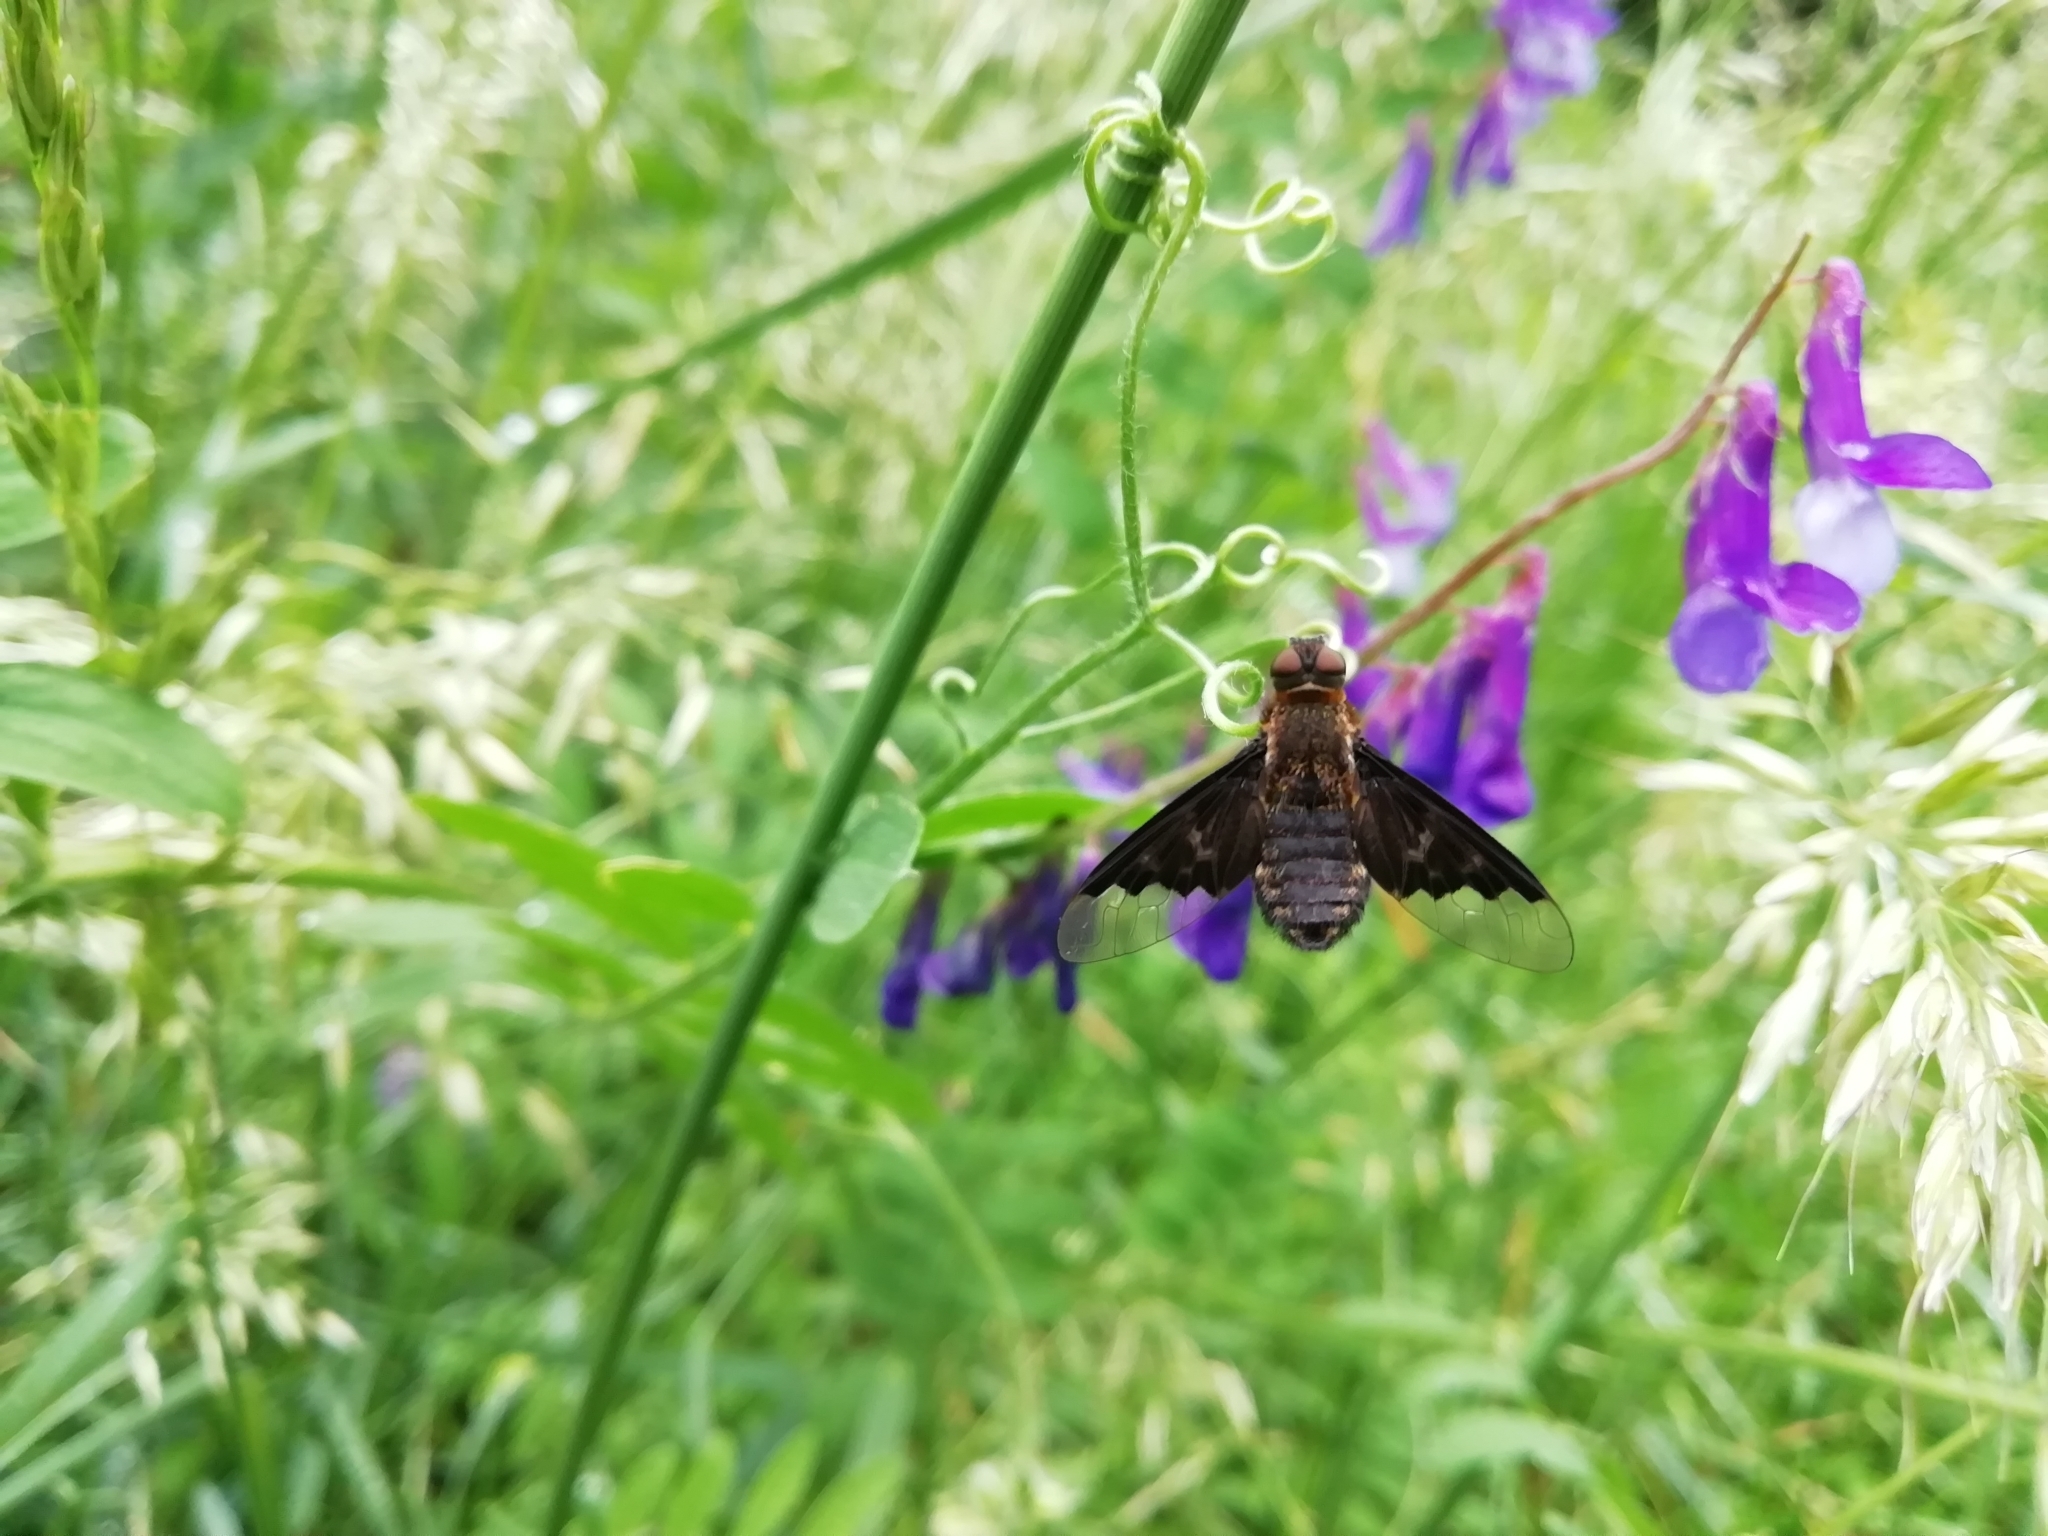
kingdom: Animalia
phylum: Arthropoda
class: Insecta
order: Diptera
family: Bombyliidae
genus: Hemipenthes
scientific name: Hemipenthes morio
